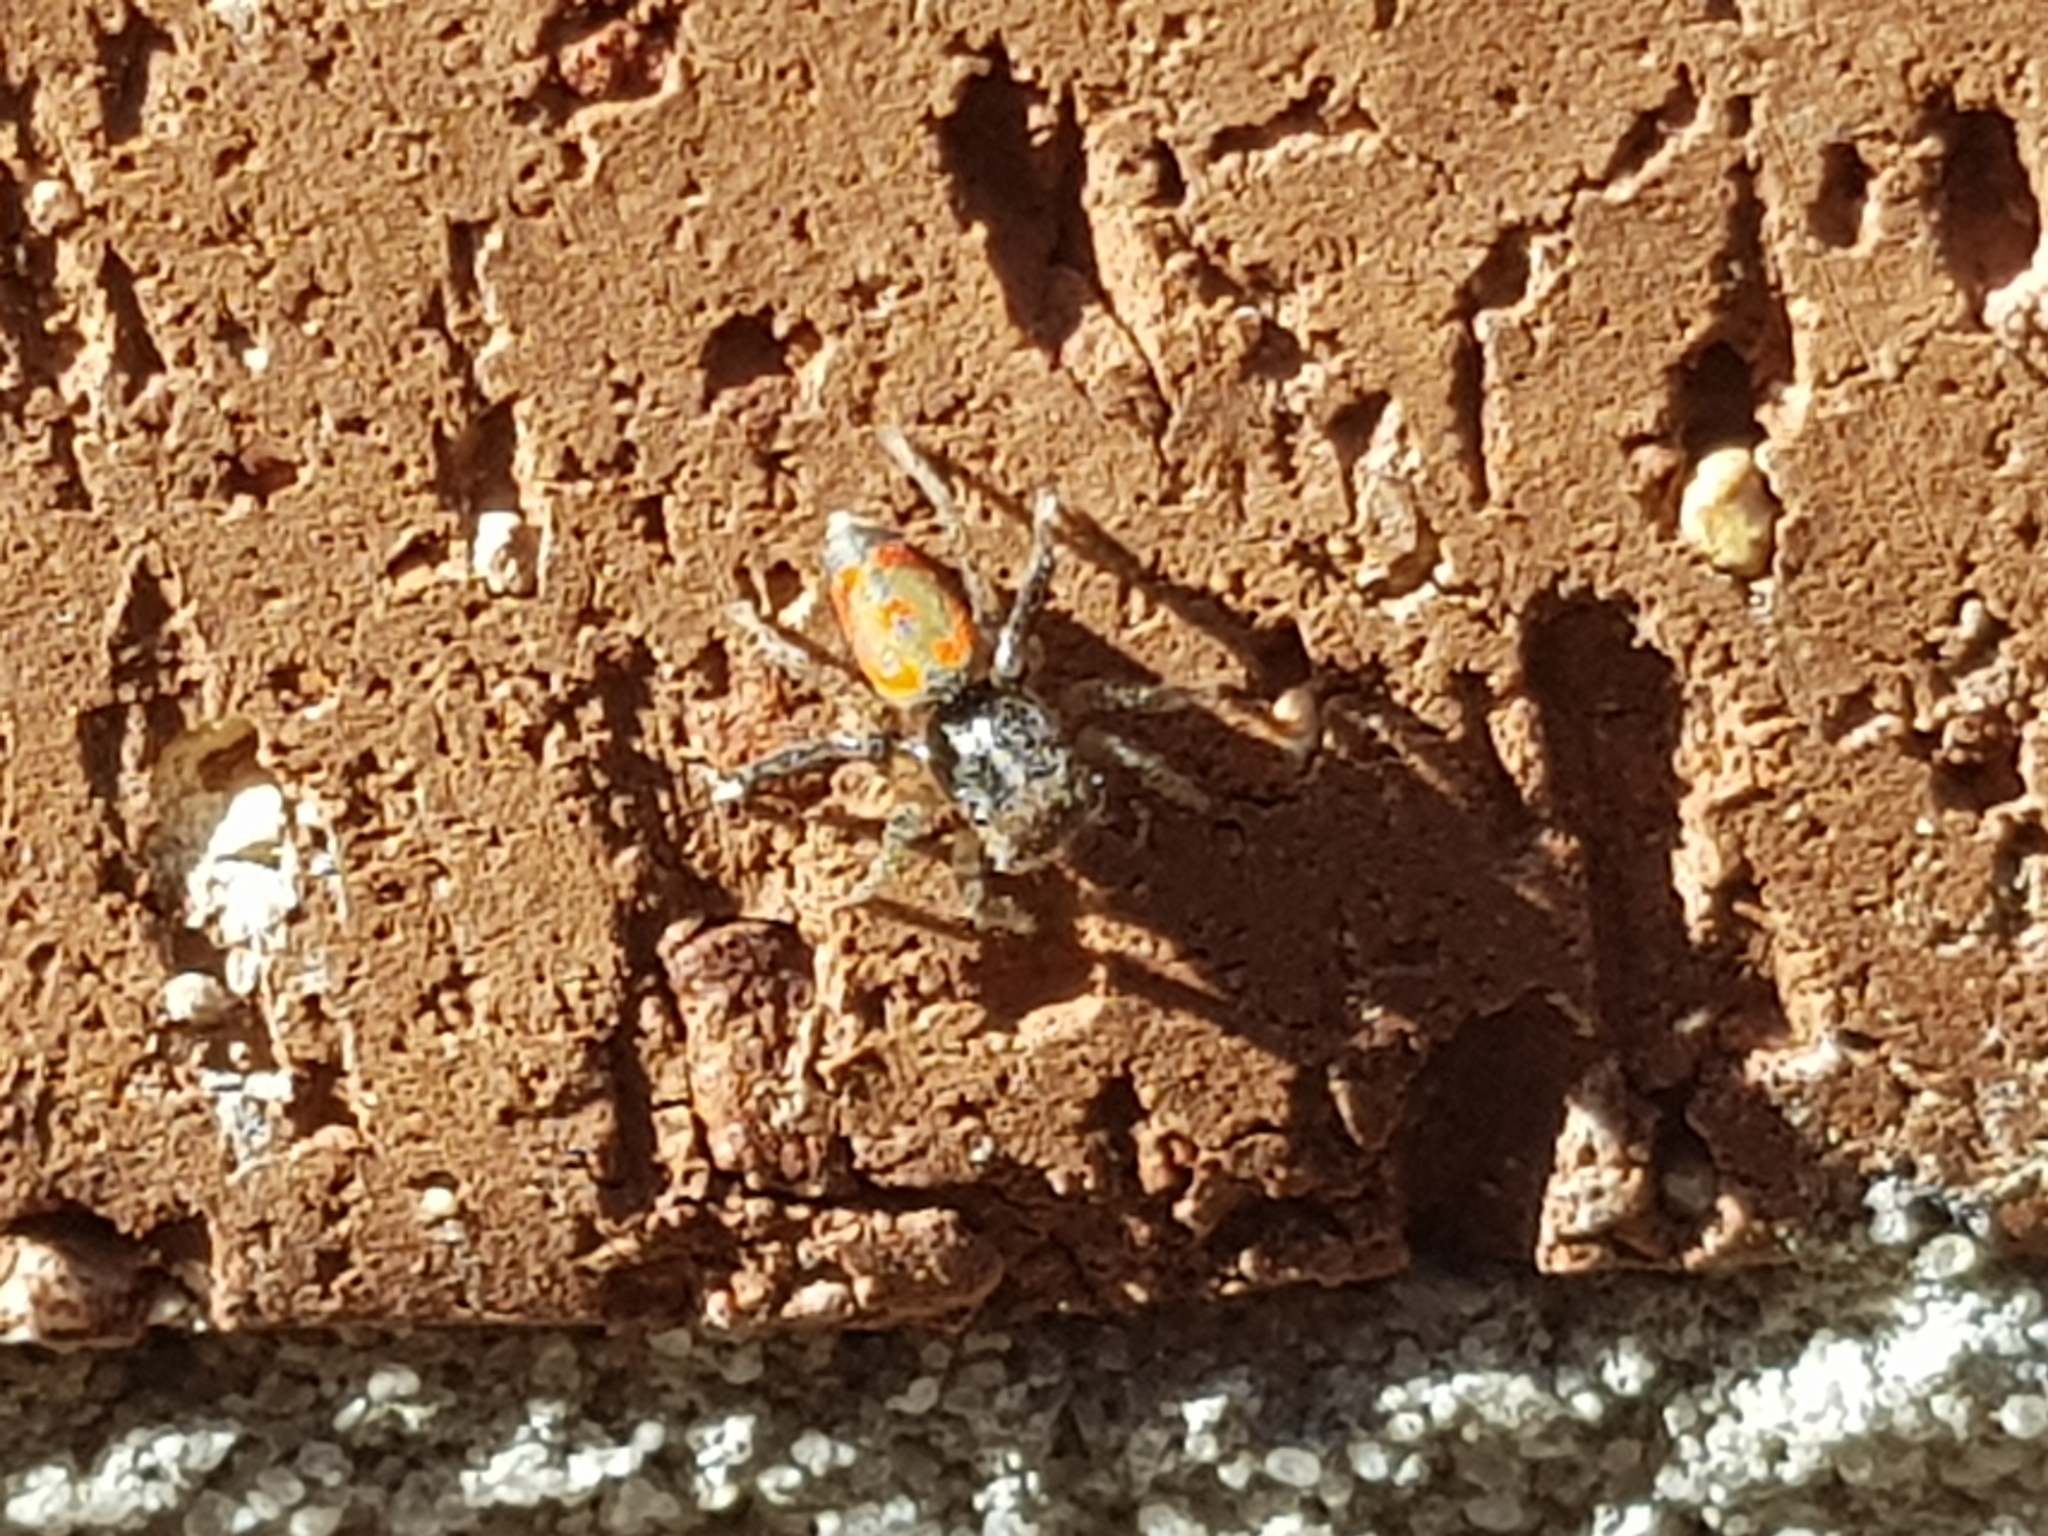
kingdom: Animalia
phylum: Arthropoda
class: Arachnida
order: Araneae
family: Salticidae
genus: Maratus
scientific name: Maratus pavonis
